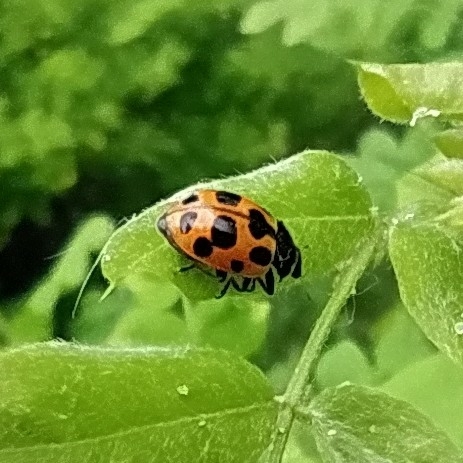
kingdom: Animalia
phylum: Arthropoda
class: Insecta
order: Coleoptera
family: Coccinellidae
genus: Ceratomegilla
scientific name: Ceratomegilla notata
